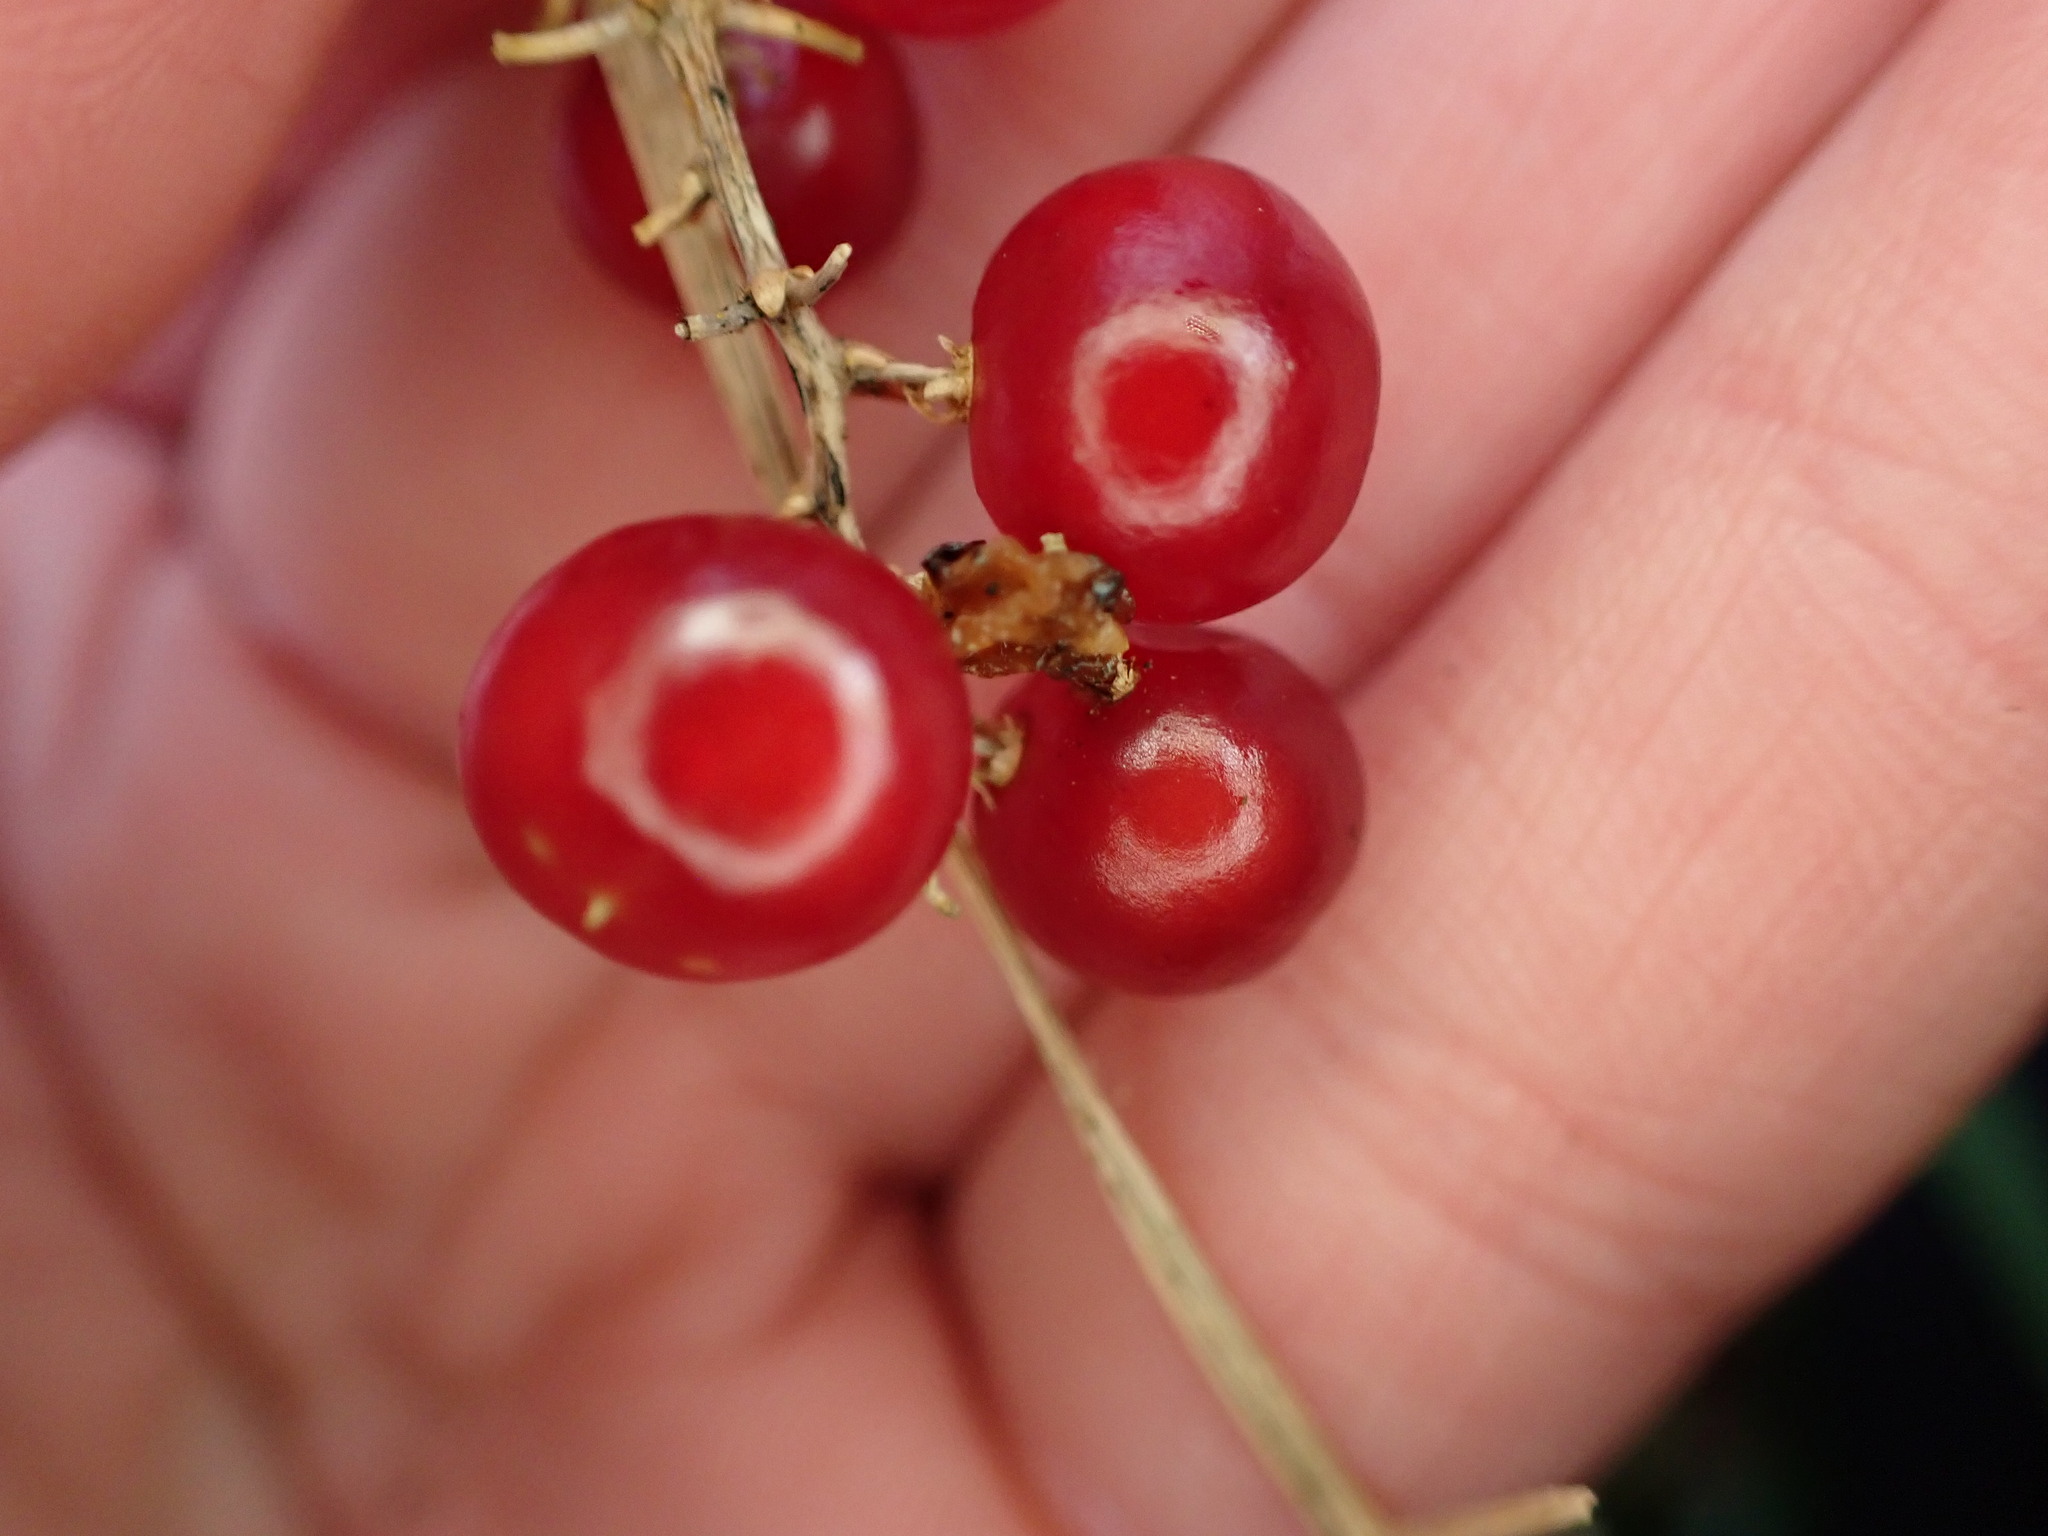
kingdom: Plantae
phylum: Tracheophyta
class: Liliopsida
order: Asparagales
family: Asparagaceae
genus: Maianthemum
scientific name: Maianthemum dilatatum
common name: False lily-of-the-valley
